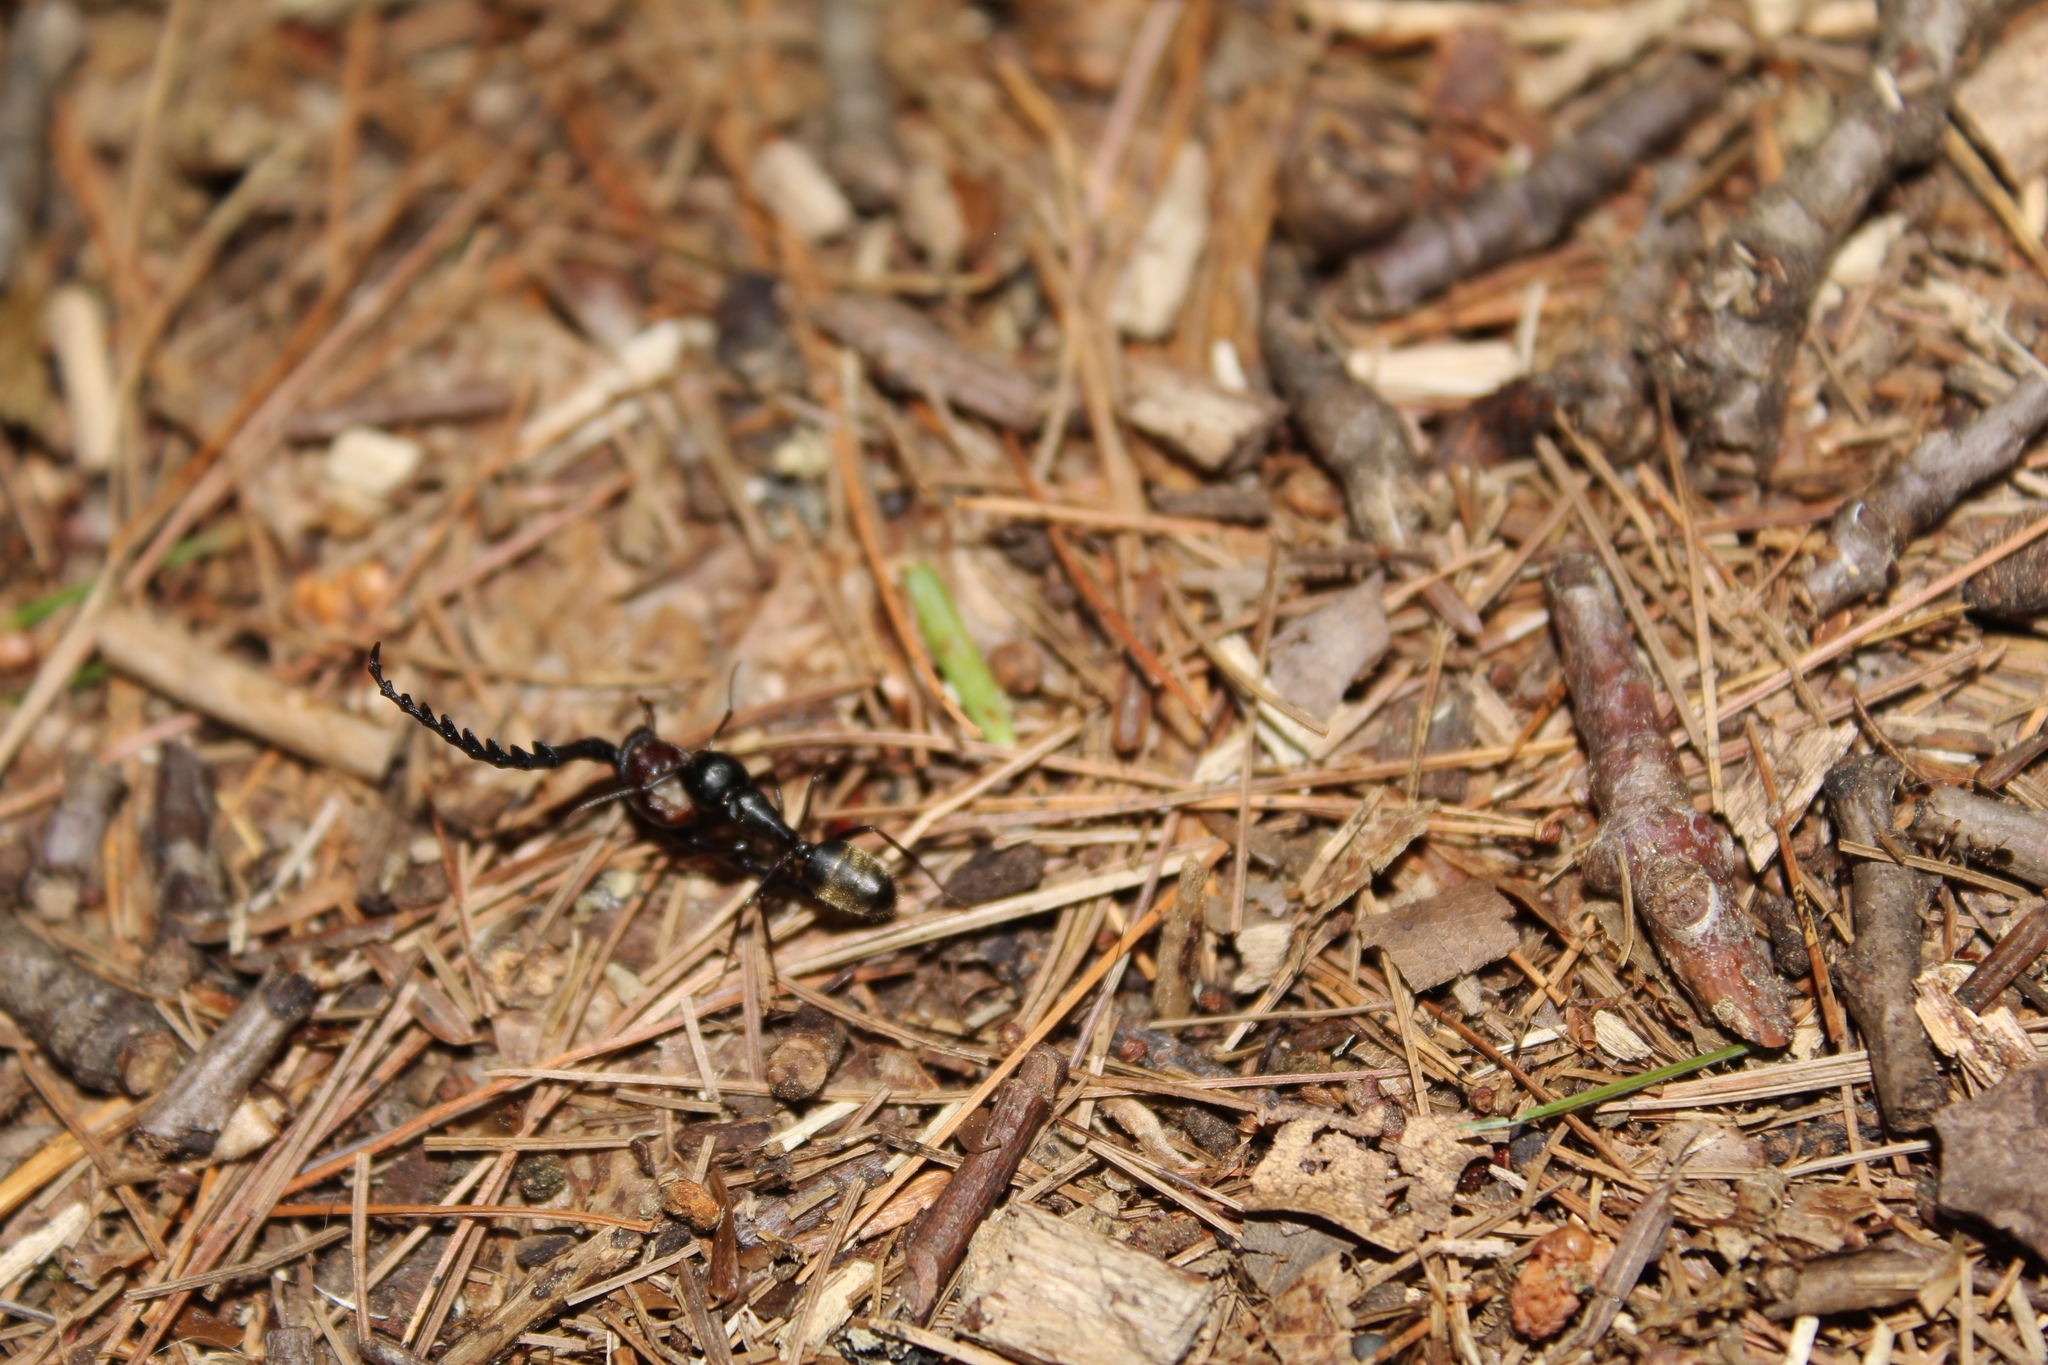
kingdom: Animalia
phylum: Arthropoda
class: Insecta
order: Coleoptera
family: Cerambycidae
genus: Prionus
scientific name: Prionus laticollis
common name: Broad necked prionus
